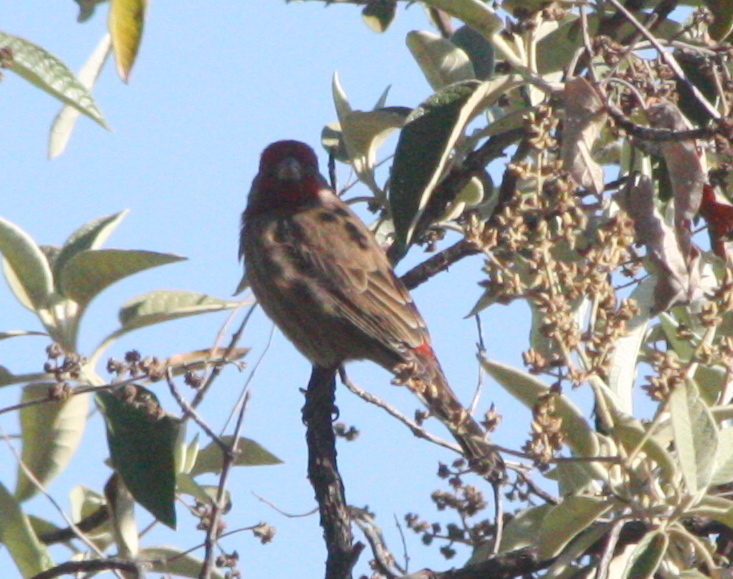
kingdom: Animalia
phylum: Chordata
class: Aves
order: Passeriformes
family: Fringillidae
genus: Haemorhous
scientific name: Haemorhous mexicanus
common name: House finch
